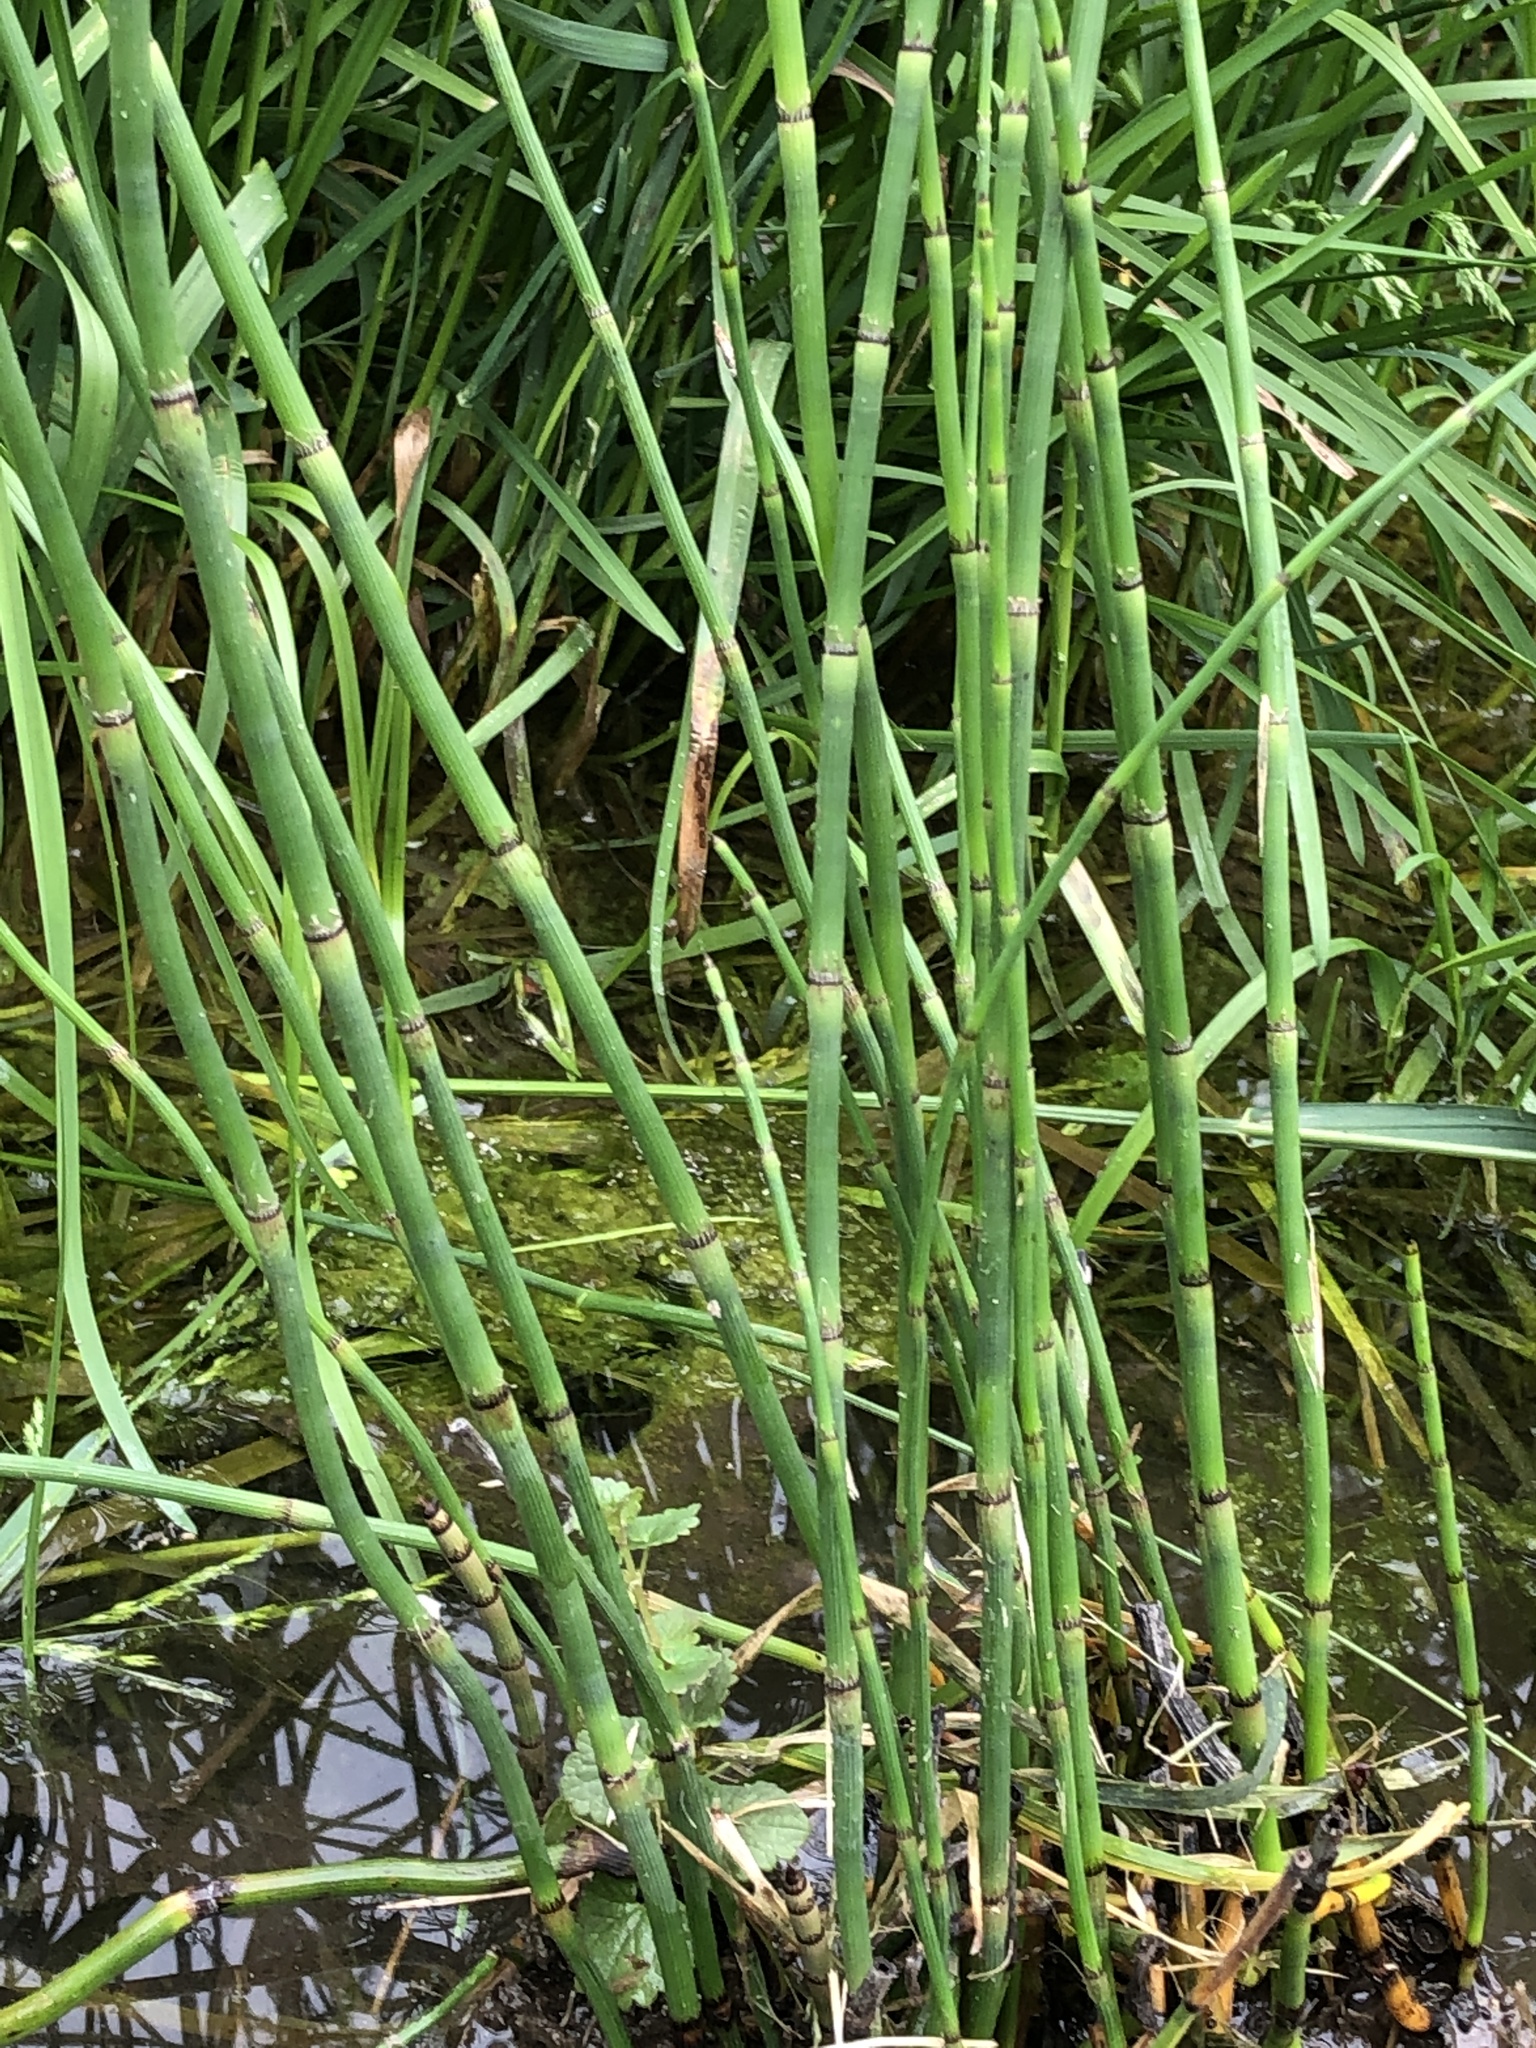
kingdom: Plantae
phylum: Tracheophyta
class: Polypodiopsida
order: Equisetales
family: Equisetaceae
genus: Equisetum
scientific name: Equisetum hyemale
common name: Rough horsetail
